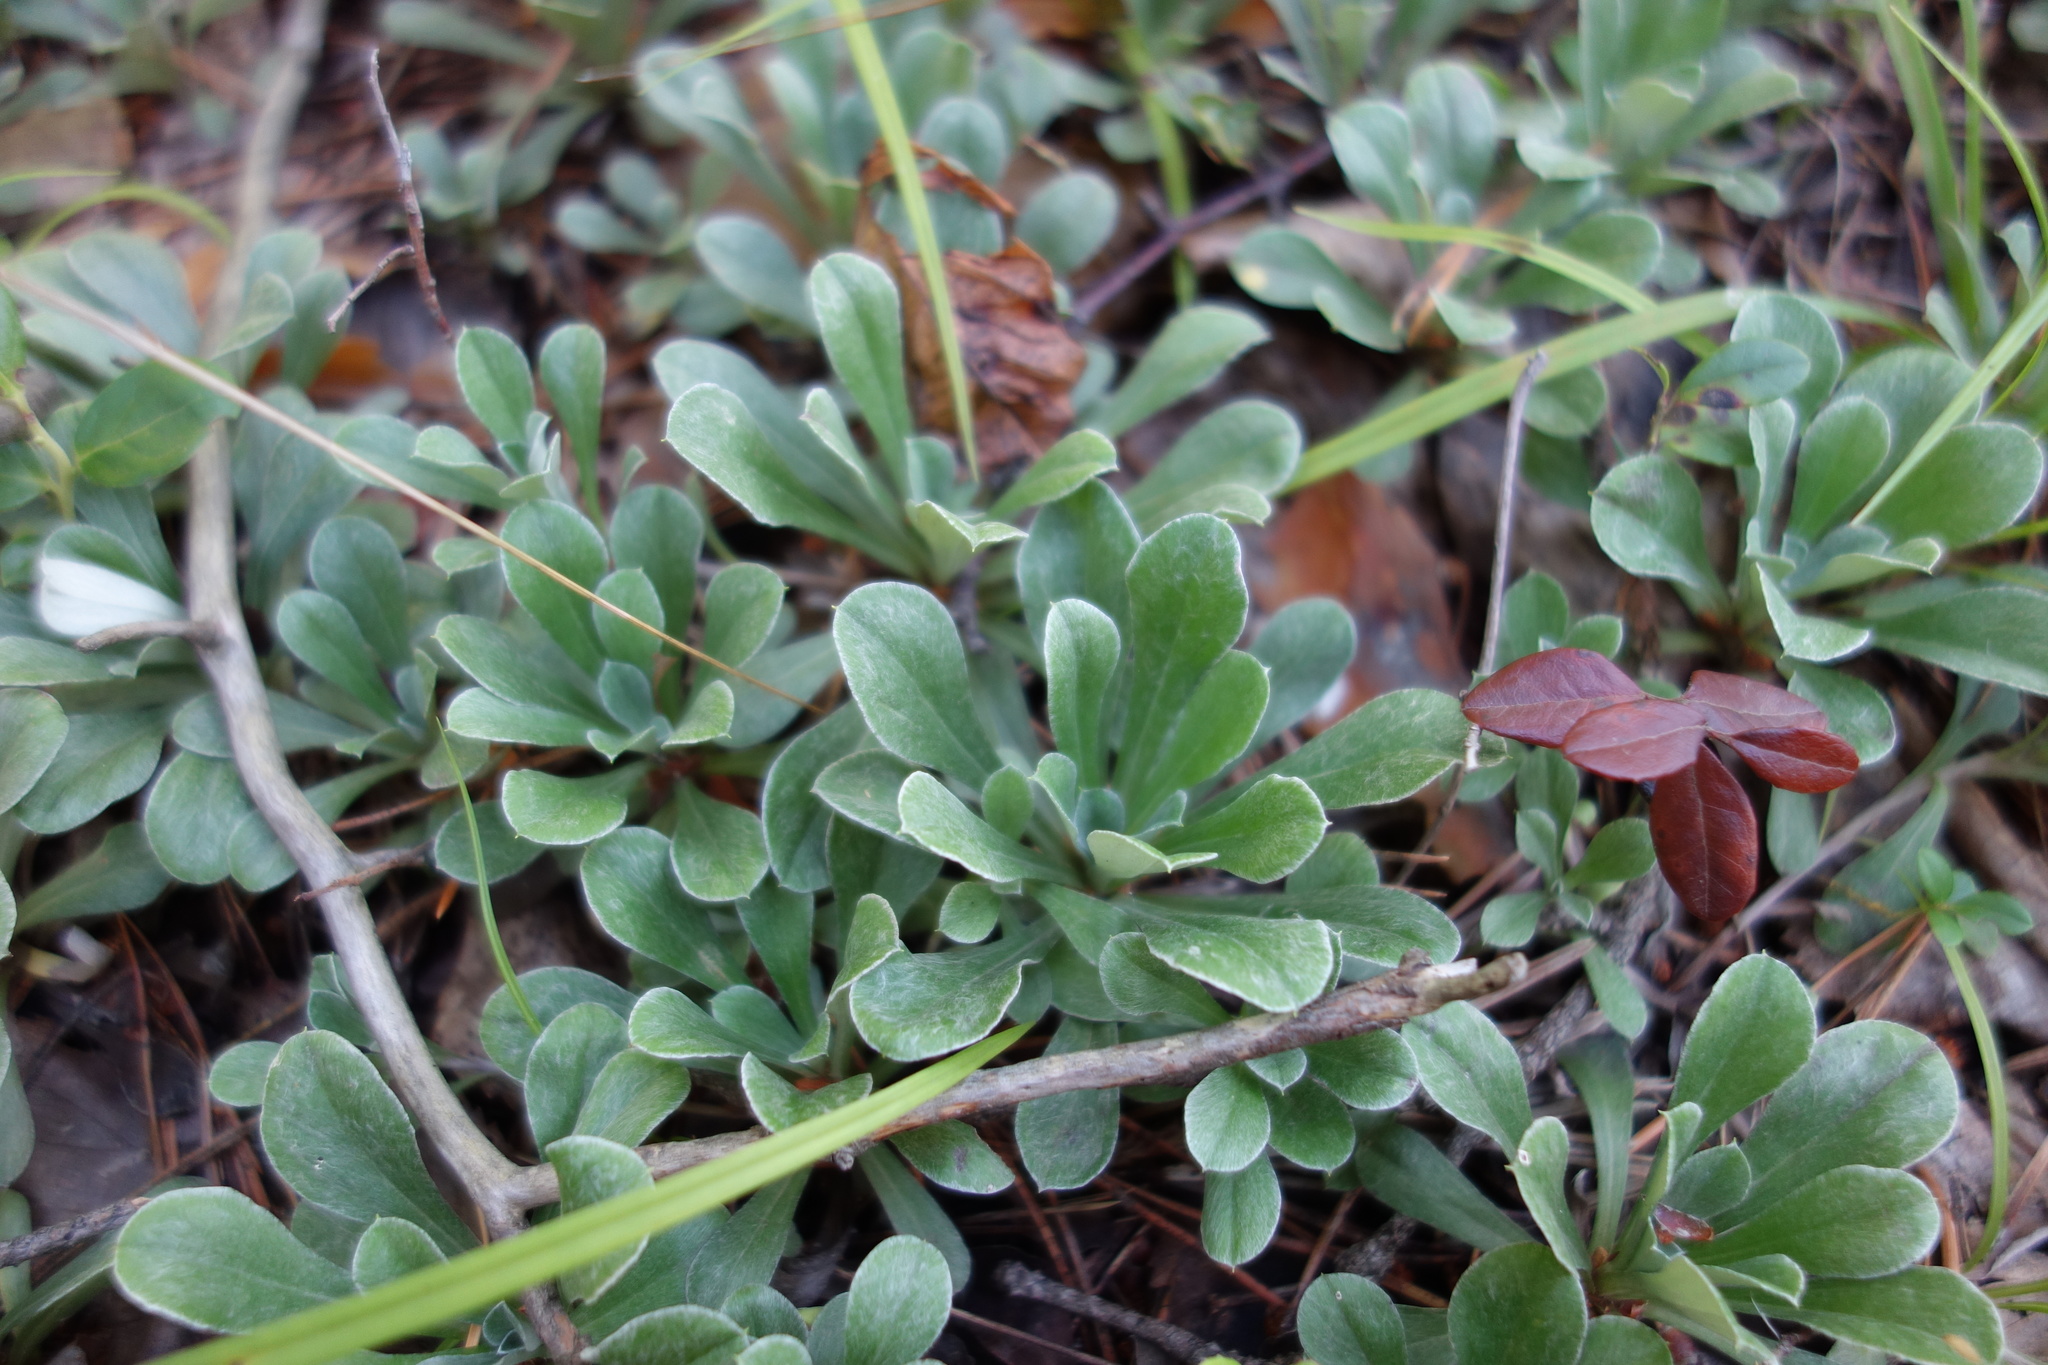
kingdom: Plantae
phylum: Tracheophyta
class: Magnoliopsida
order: Asterales
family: Asteraceae
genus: Antennaria
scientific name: Antennaria dioica
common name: Mountain everlasting
